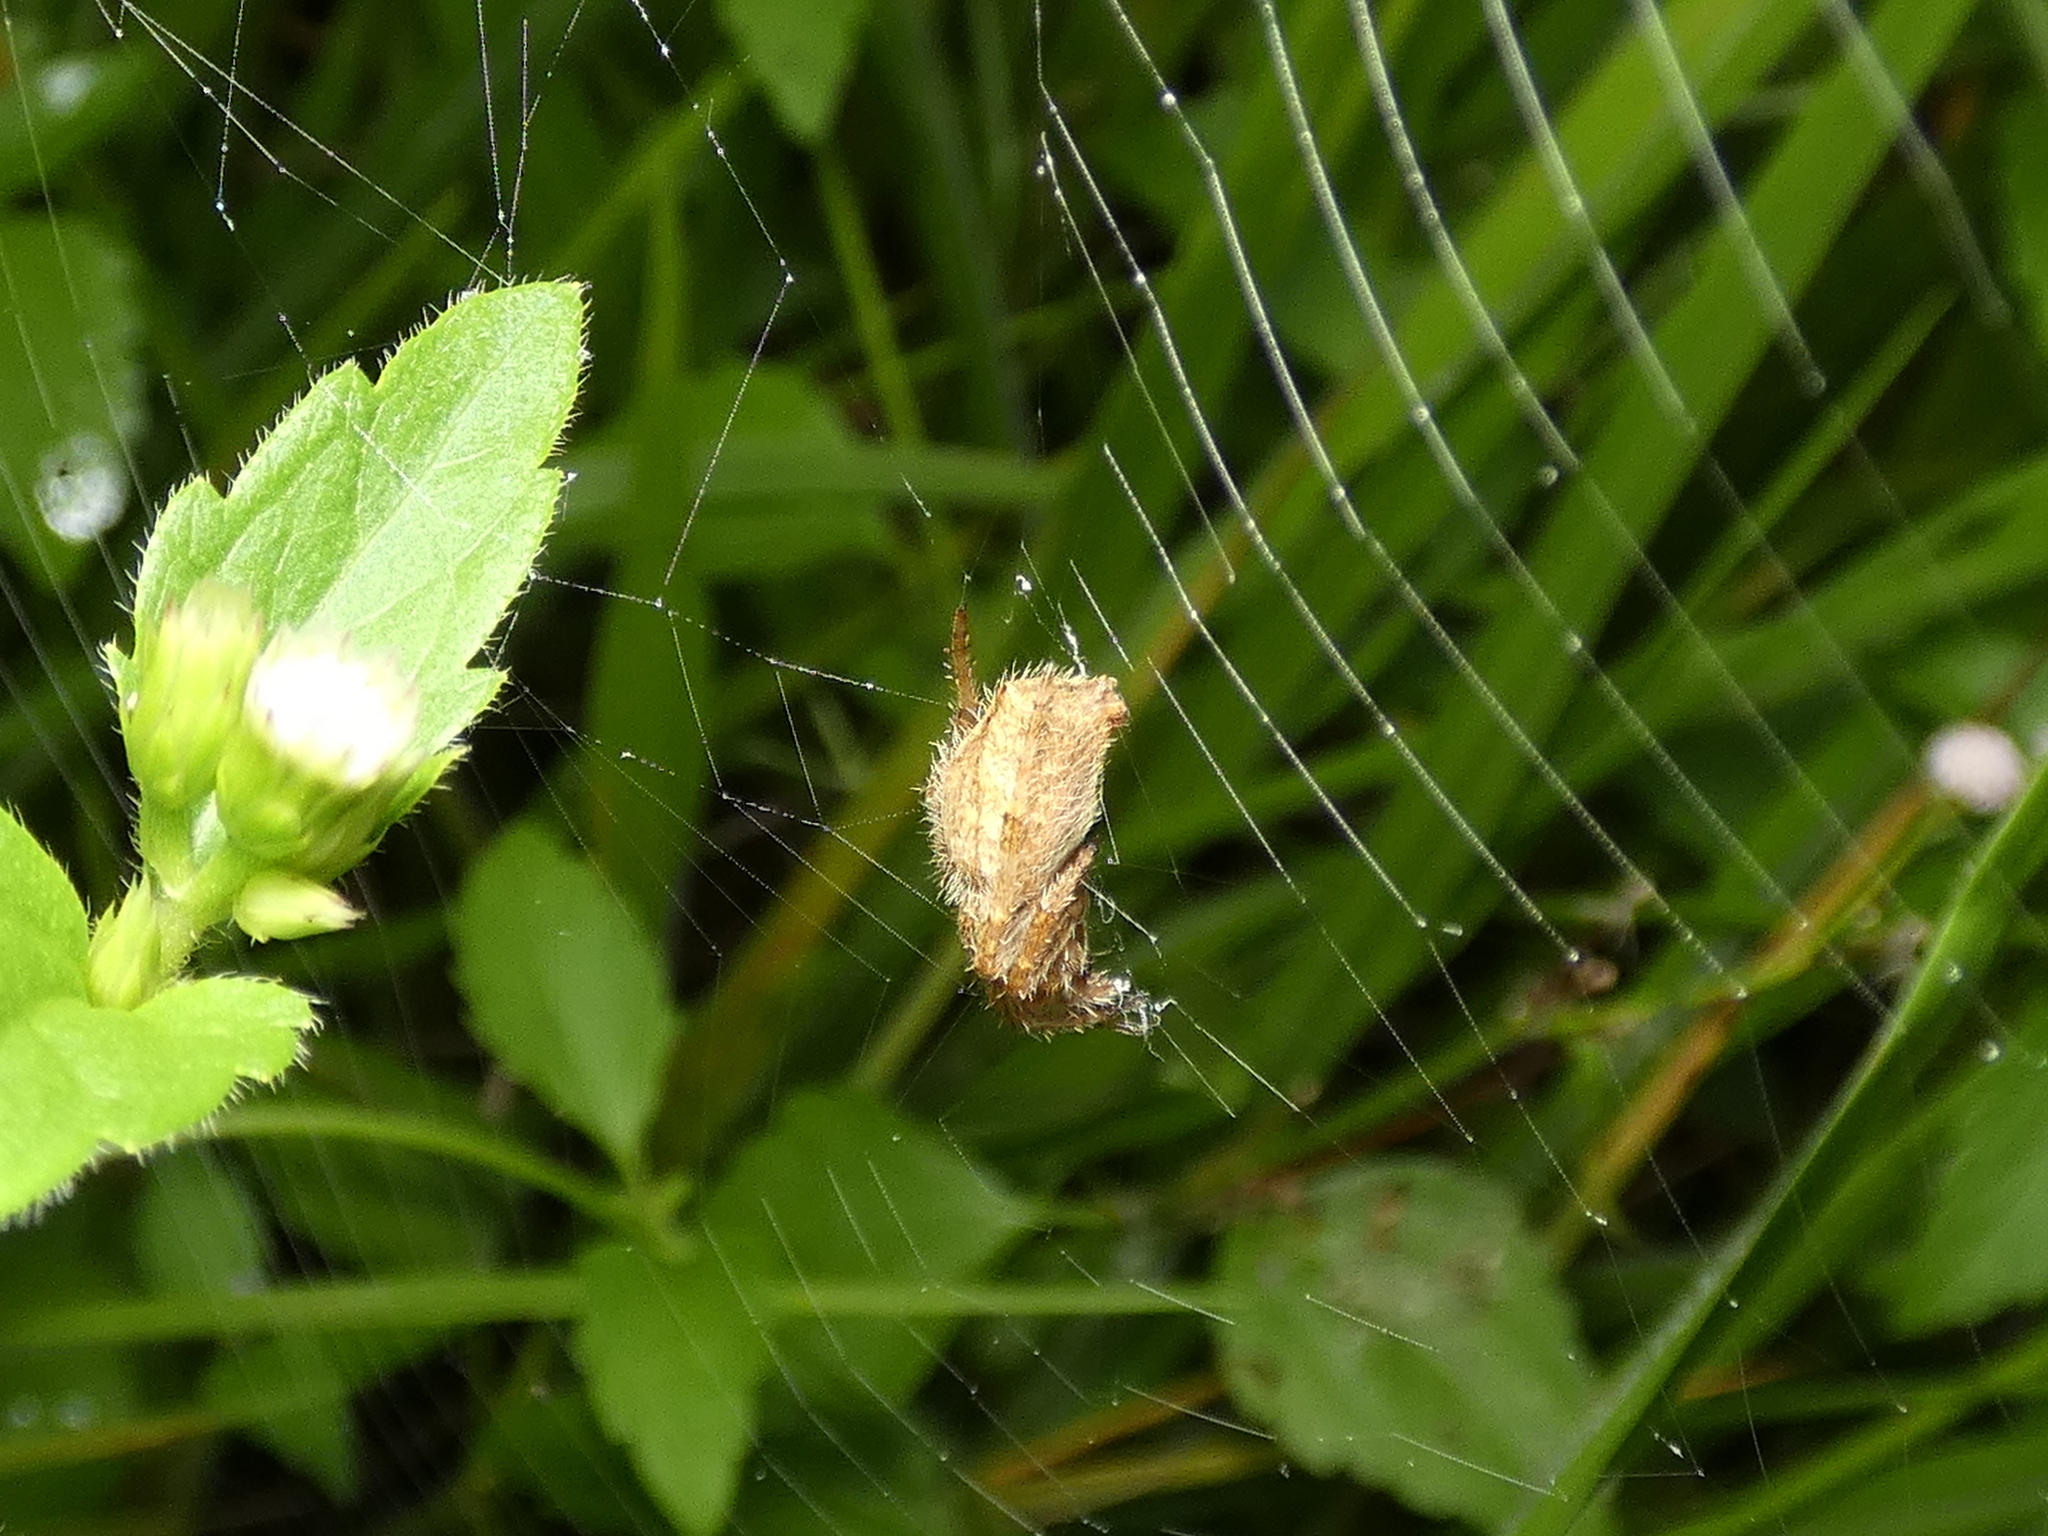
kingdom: Animalia
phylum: Arthropoda
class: Arachnida
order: Araneae
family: Araneidae
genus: Eriophora
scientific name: Eriophora edax
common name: Orb weavers
